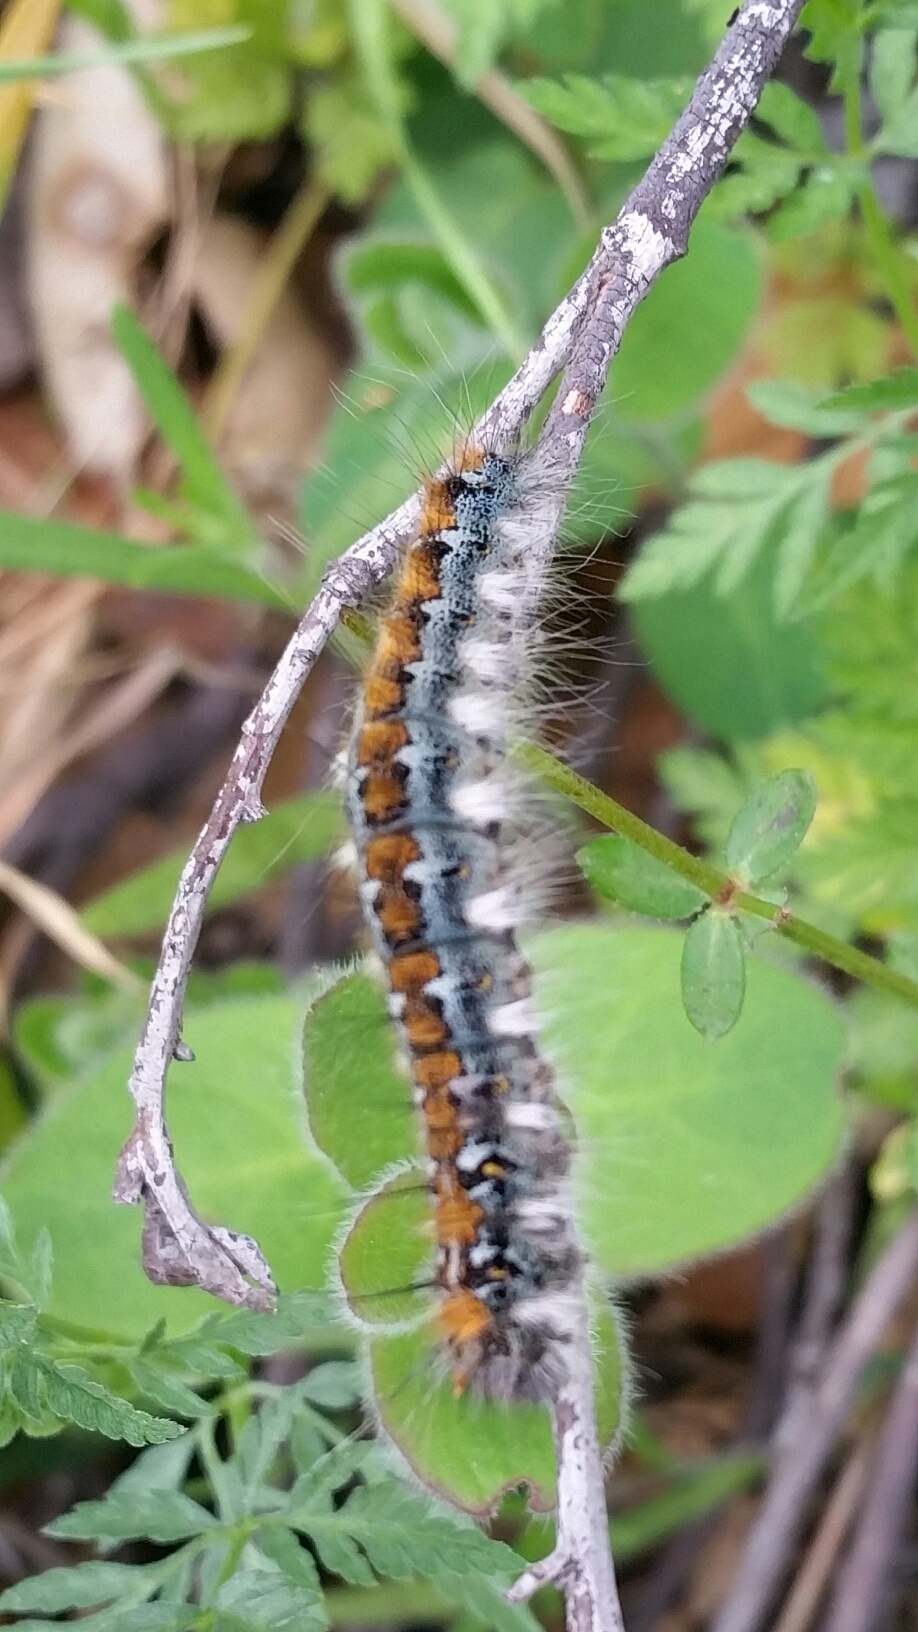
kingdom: Animalia
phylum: Arthropoda
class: Insecta
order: Lepidoptera
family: Lasiocampidae
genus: Malacosoma
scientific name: Malacosoma constricta
